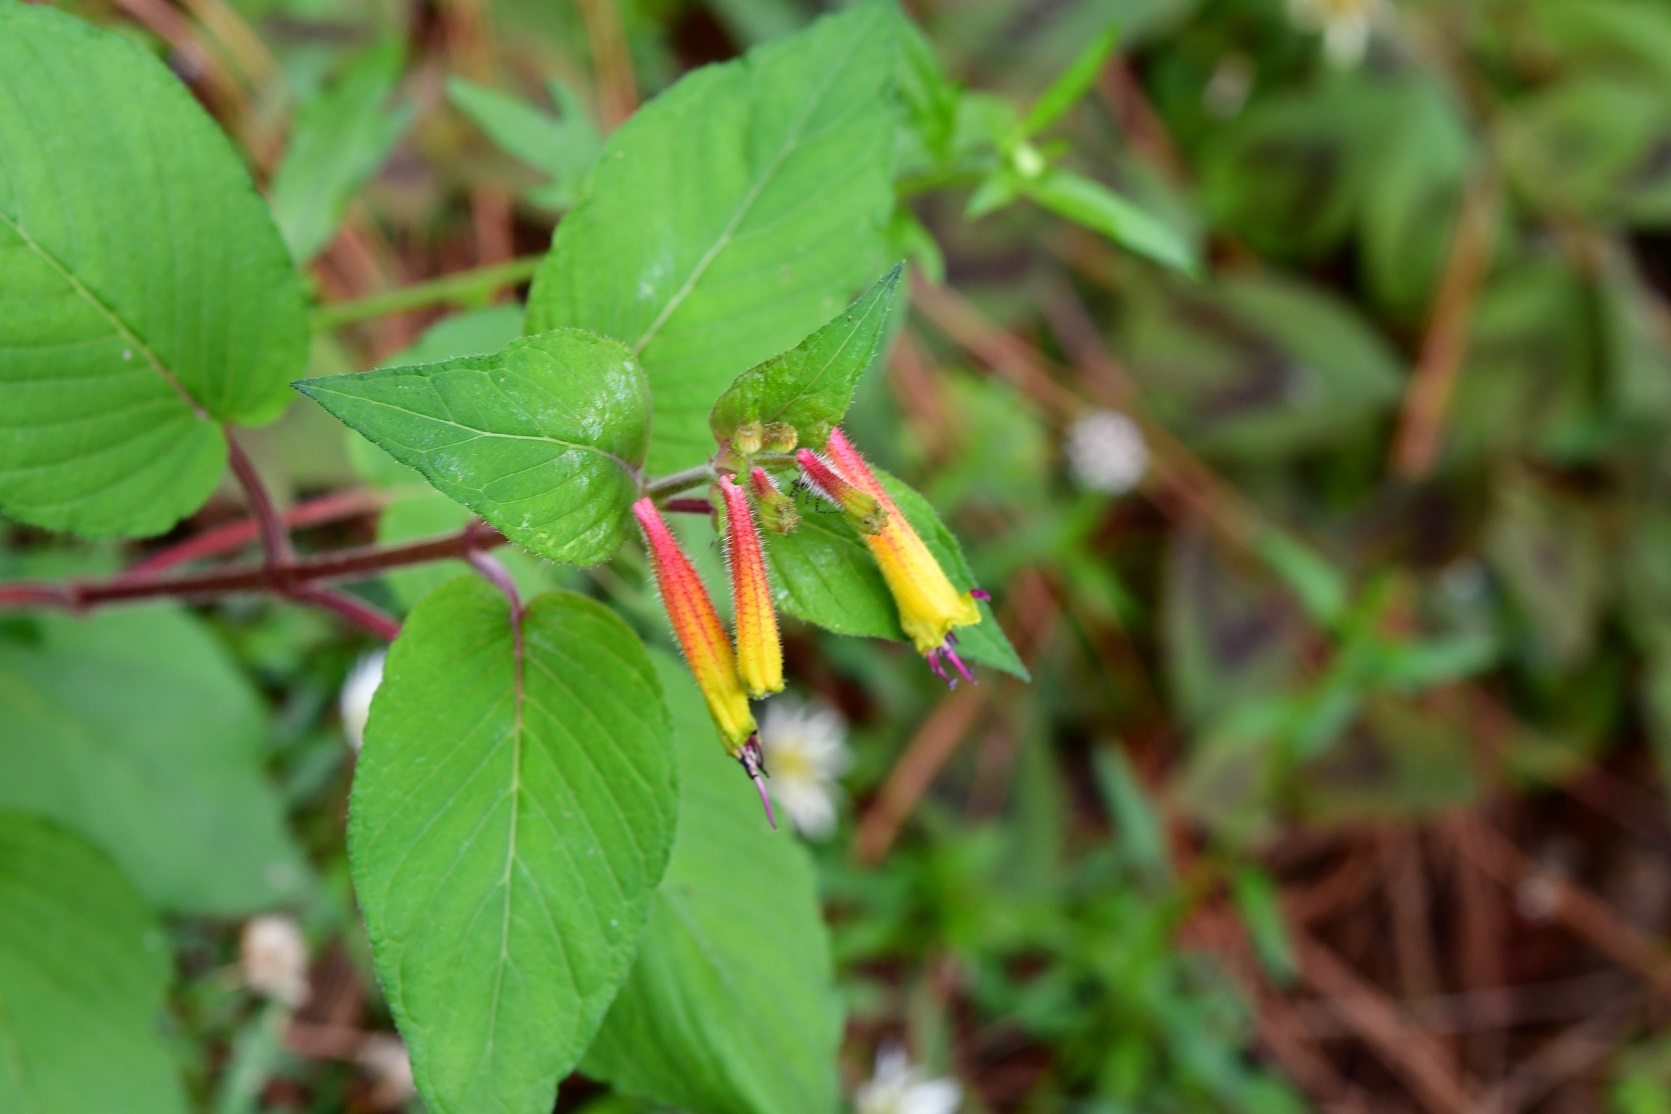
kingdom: Plantae
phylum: Tracheophyta
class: Magnoliopsida
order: Myrtales
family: Lythraceae
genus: Cuphea
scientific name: Cuphea cyanea
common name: Black-eyed cuphea
